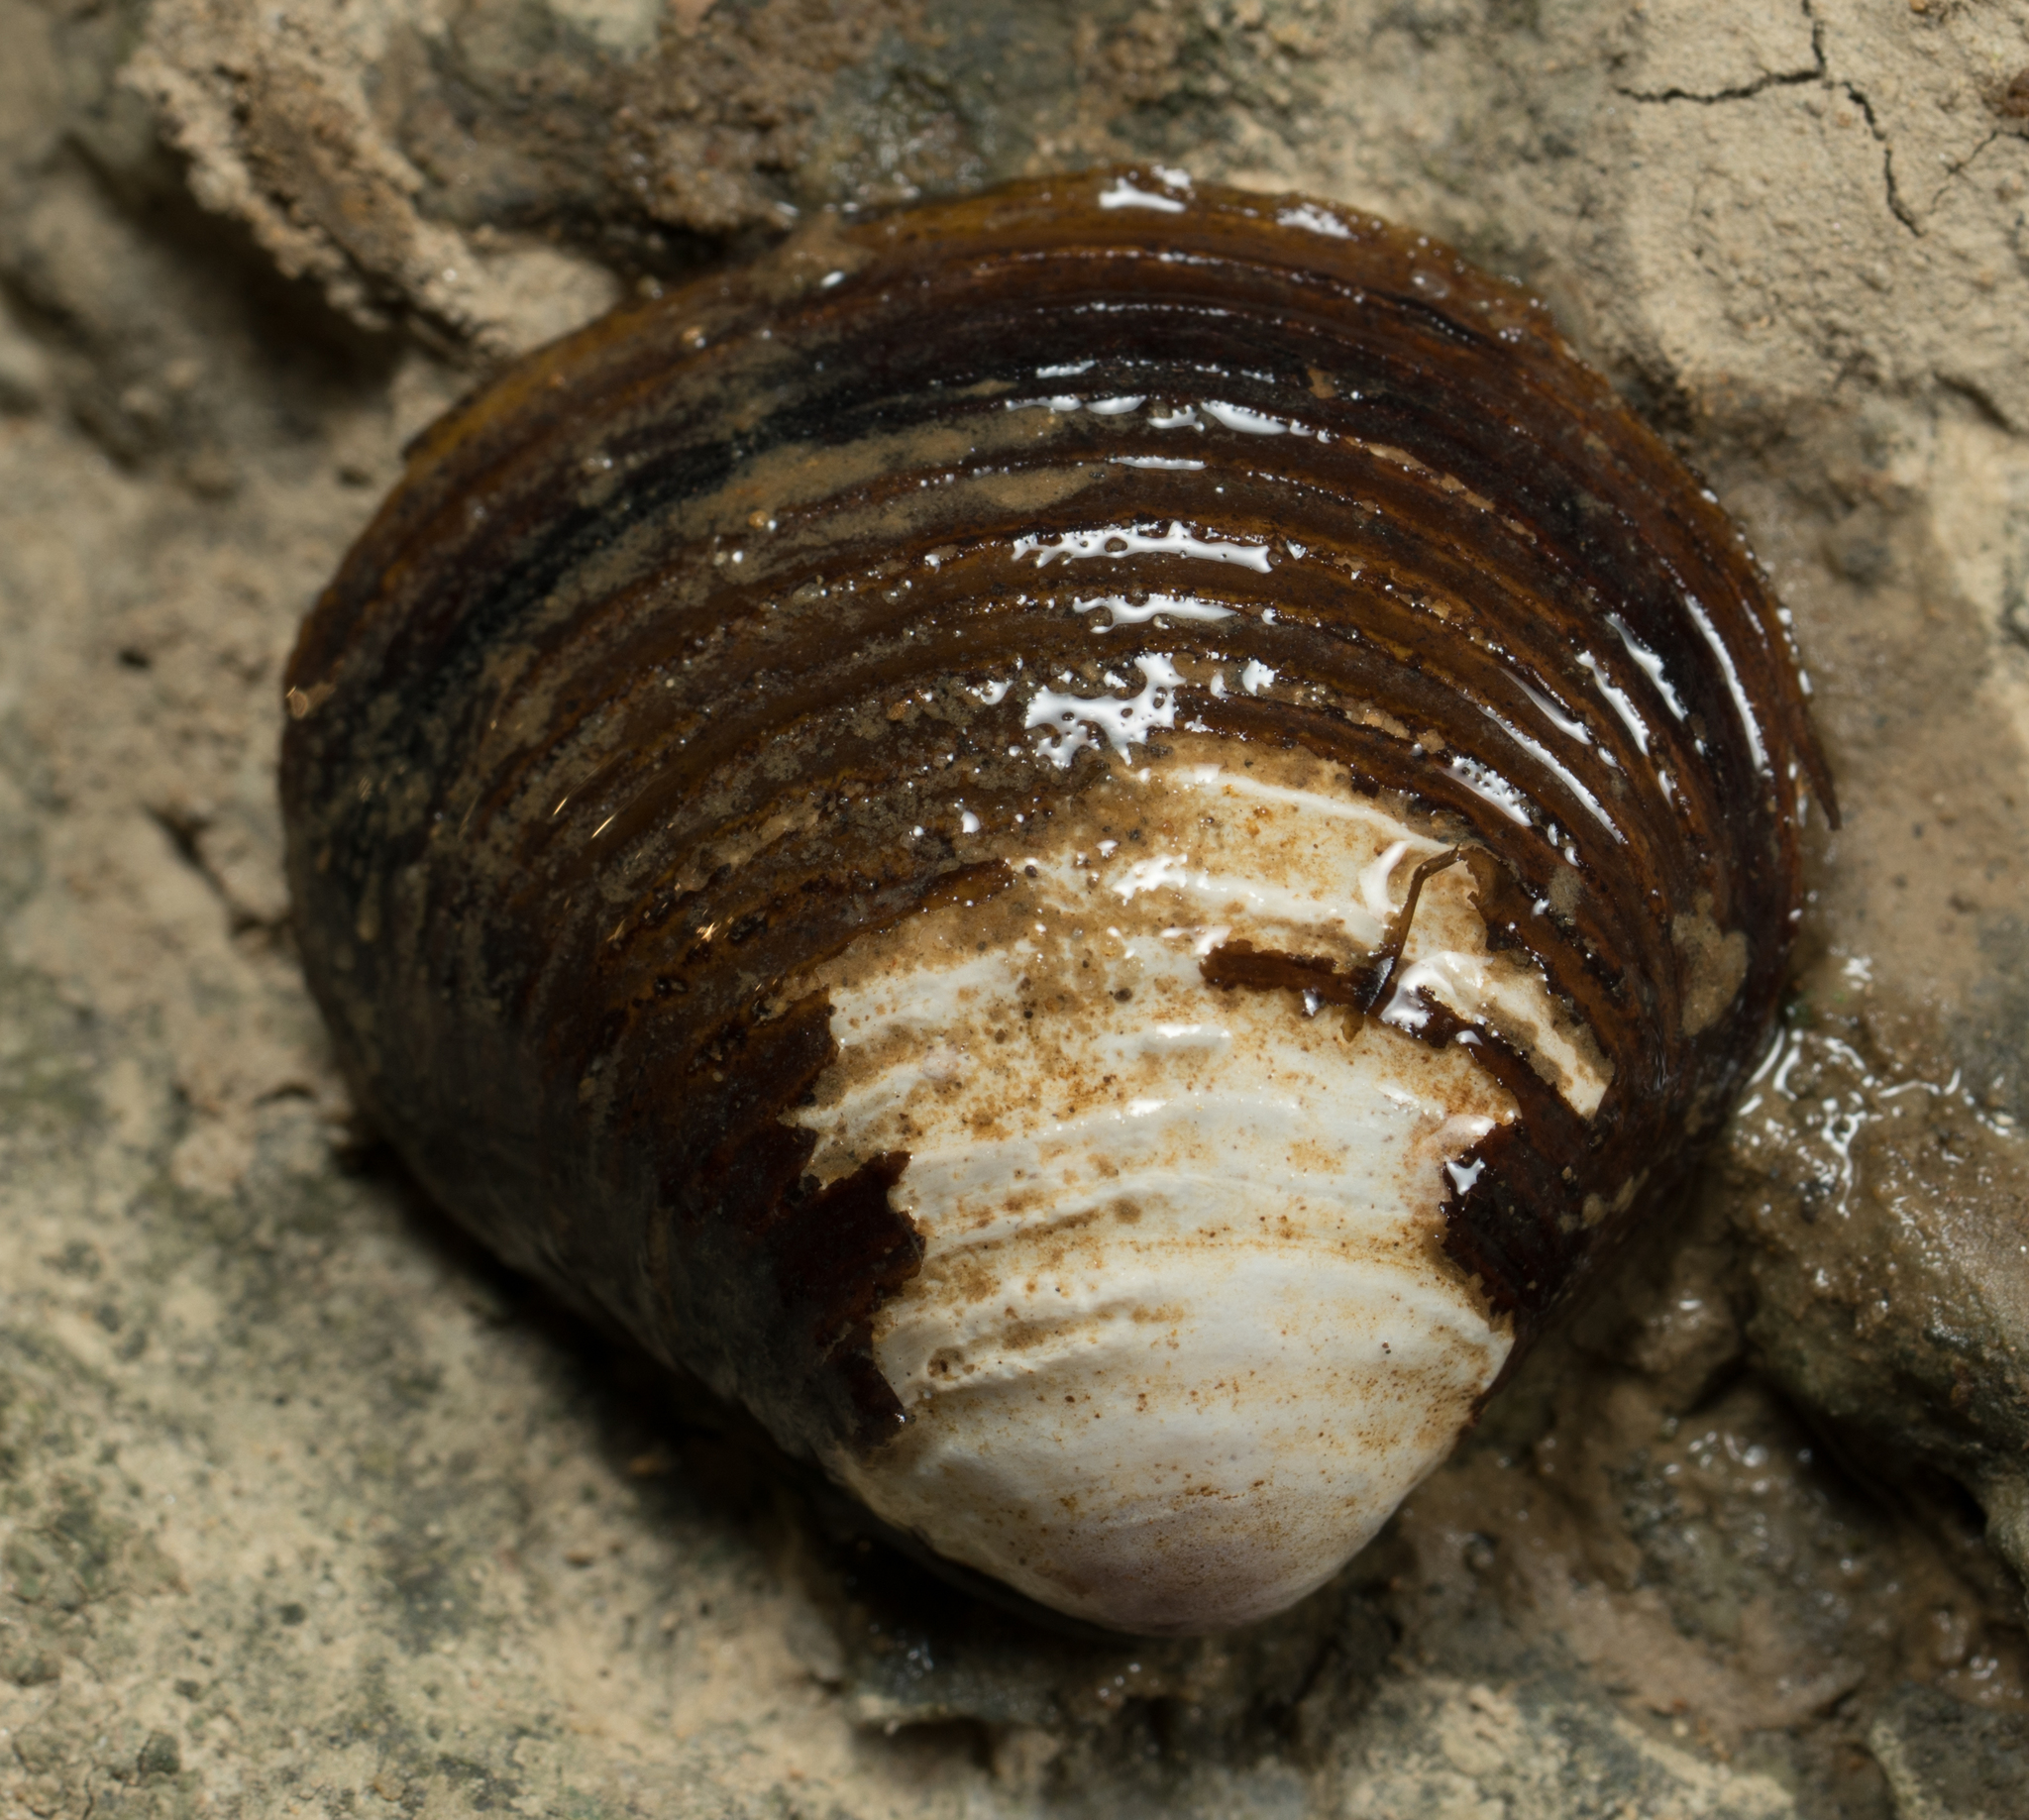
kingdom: Animalia
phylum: Mollusca
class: Bivalvia
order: Venerida
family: Cyrenidae
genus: Corbicula
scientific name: Corbicula fluminea
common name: Asian clam
